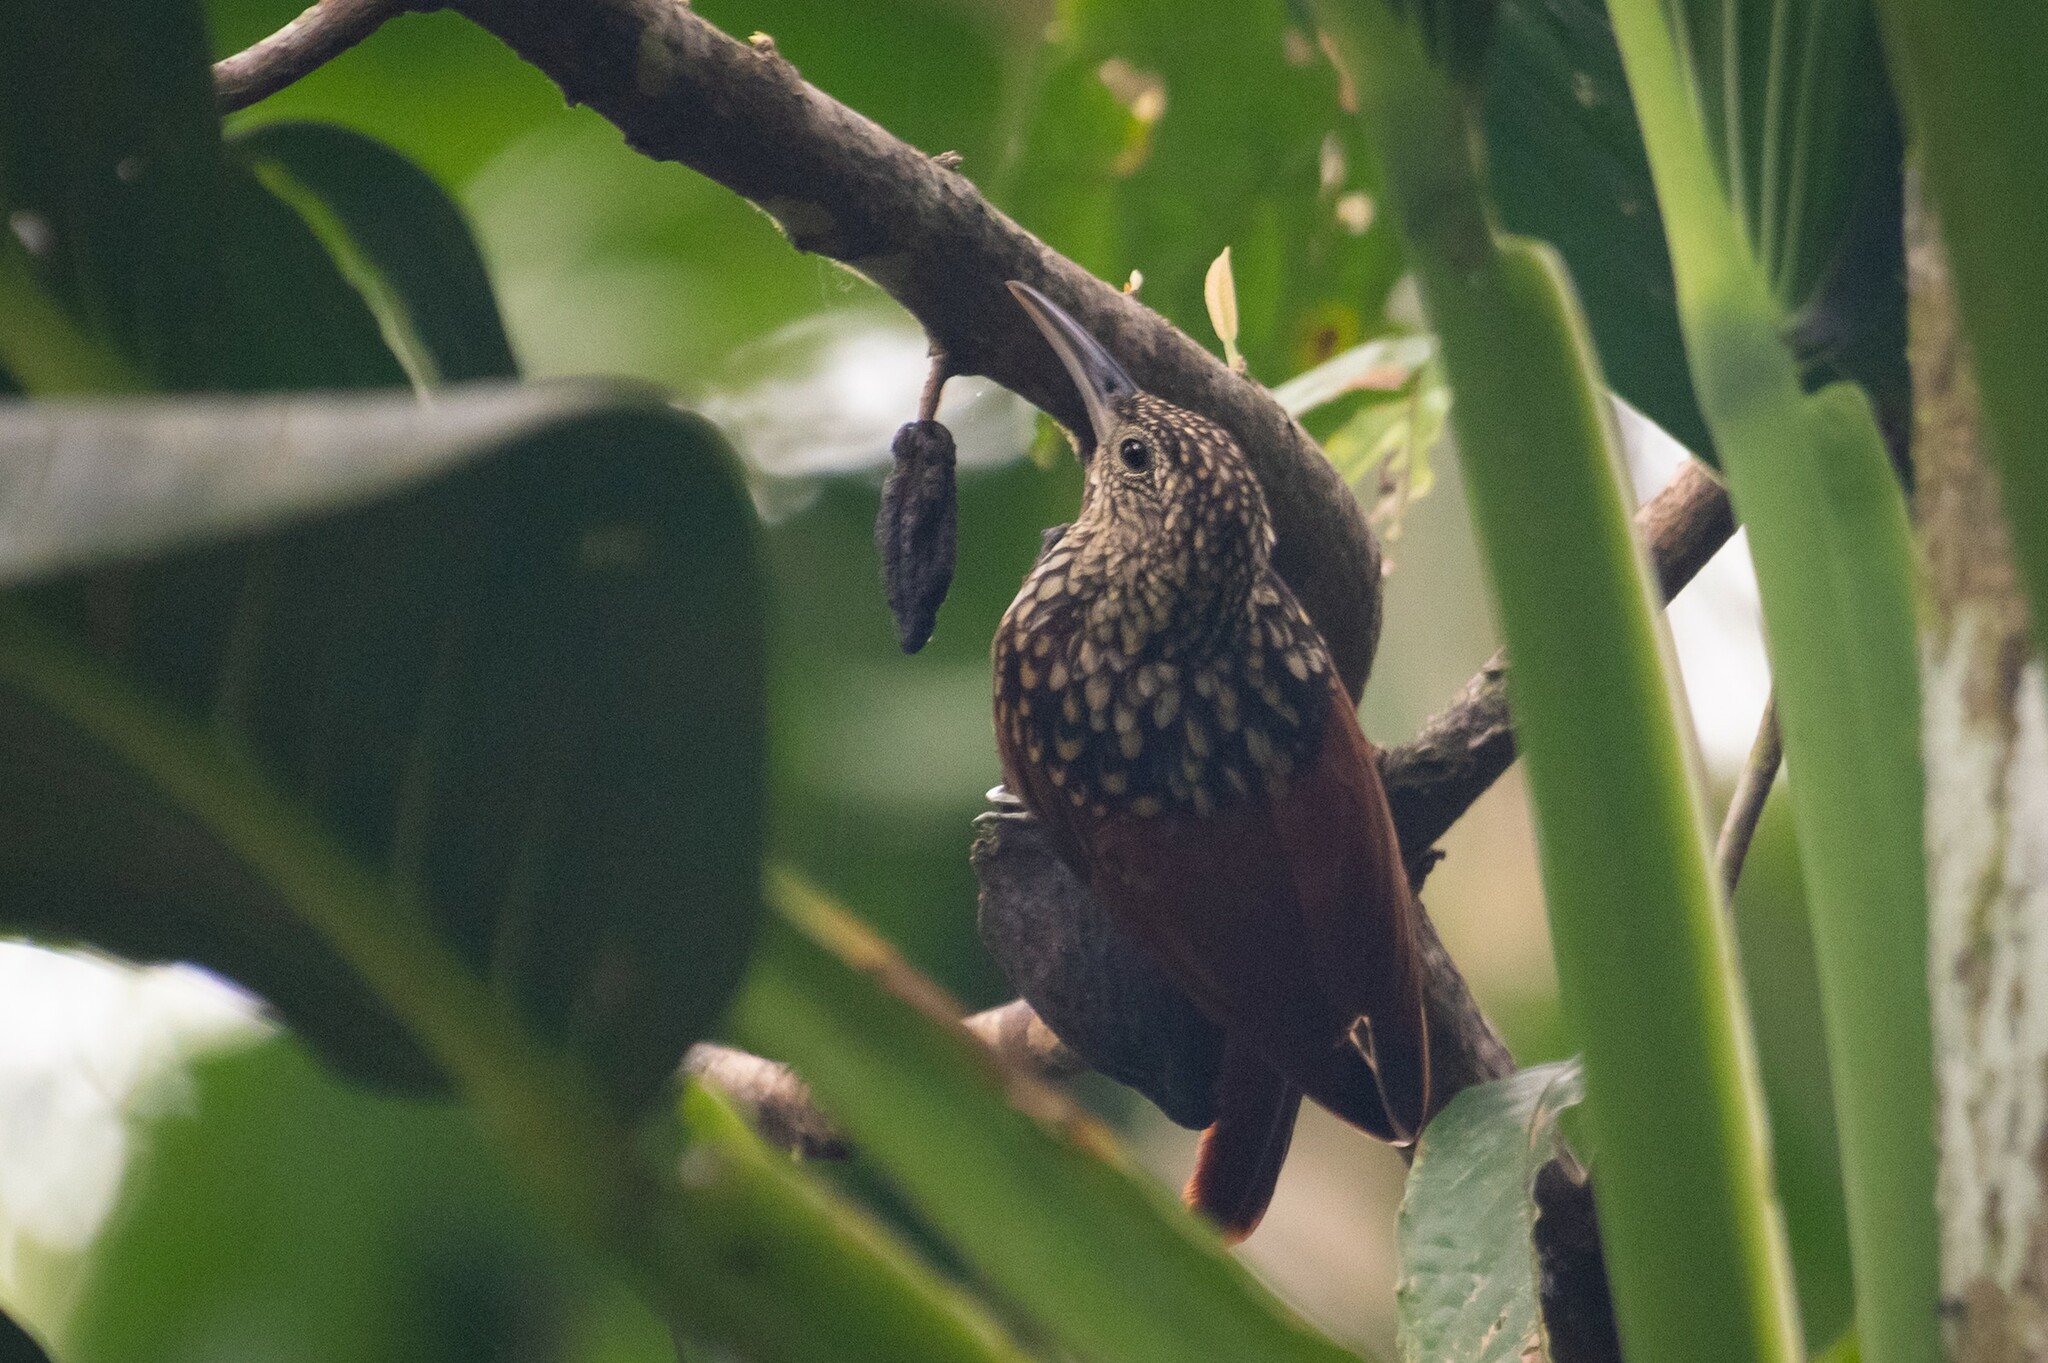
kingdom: Animalia
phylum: Chordata
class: Aves
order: Passeriformes
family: Furnariidae
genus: Xiphorhynchus
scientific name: Xiphorhynchus lachrymosus
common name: Black-striped woodcreeper
